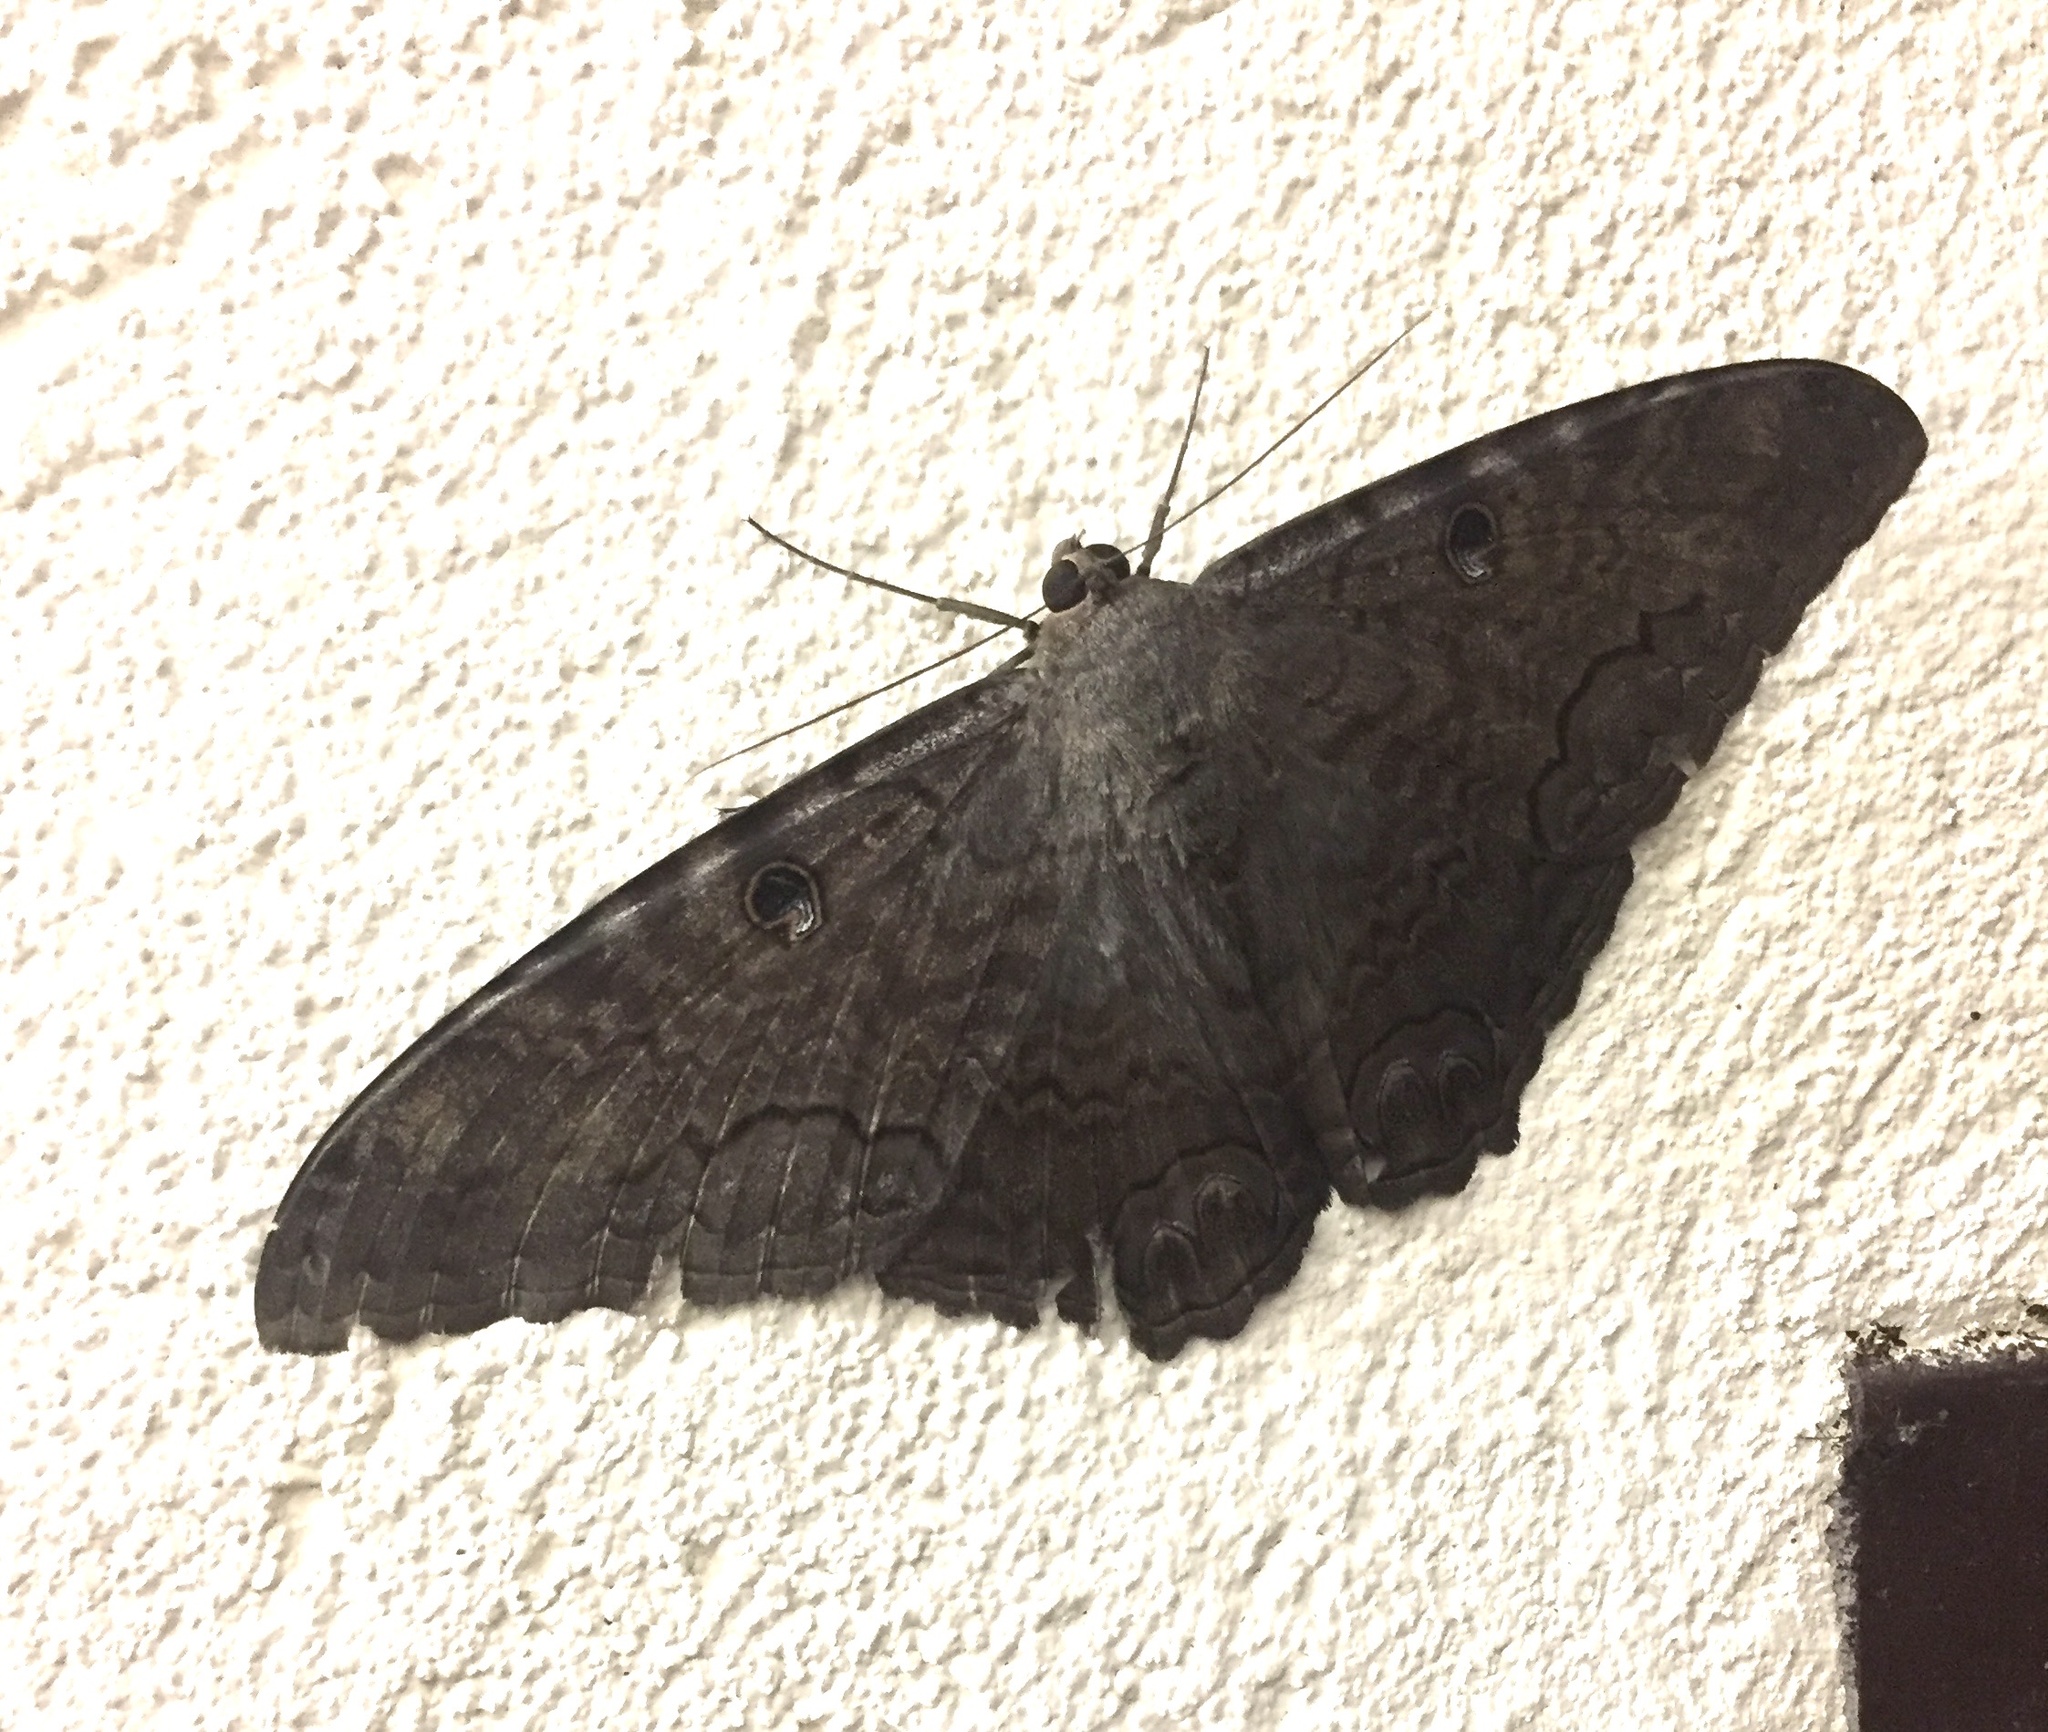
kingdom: Animalia
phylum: Arthropoda
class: Insecta
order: Lepidoptera
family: Erebidae
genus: Ascalapha
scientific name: Ascalapha odorata
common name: Black witch
